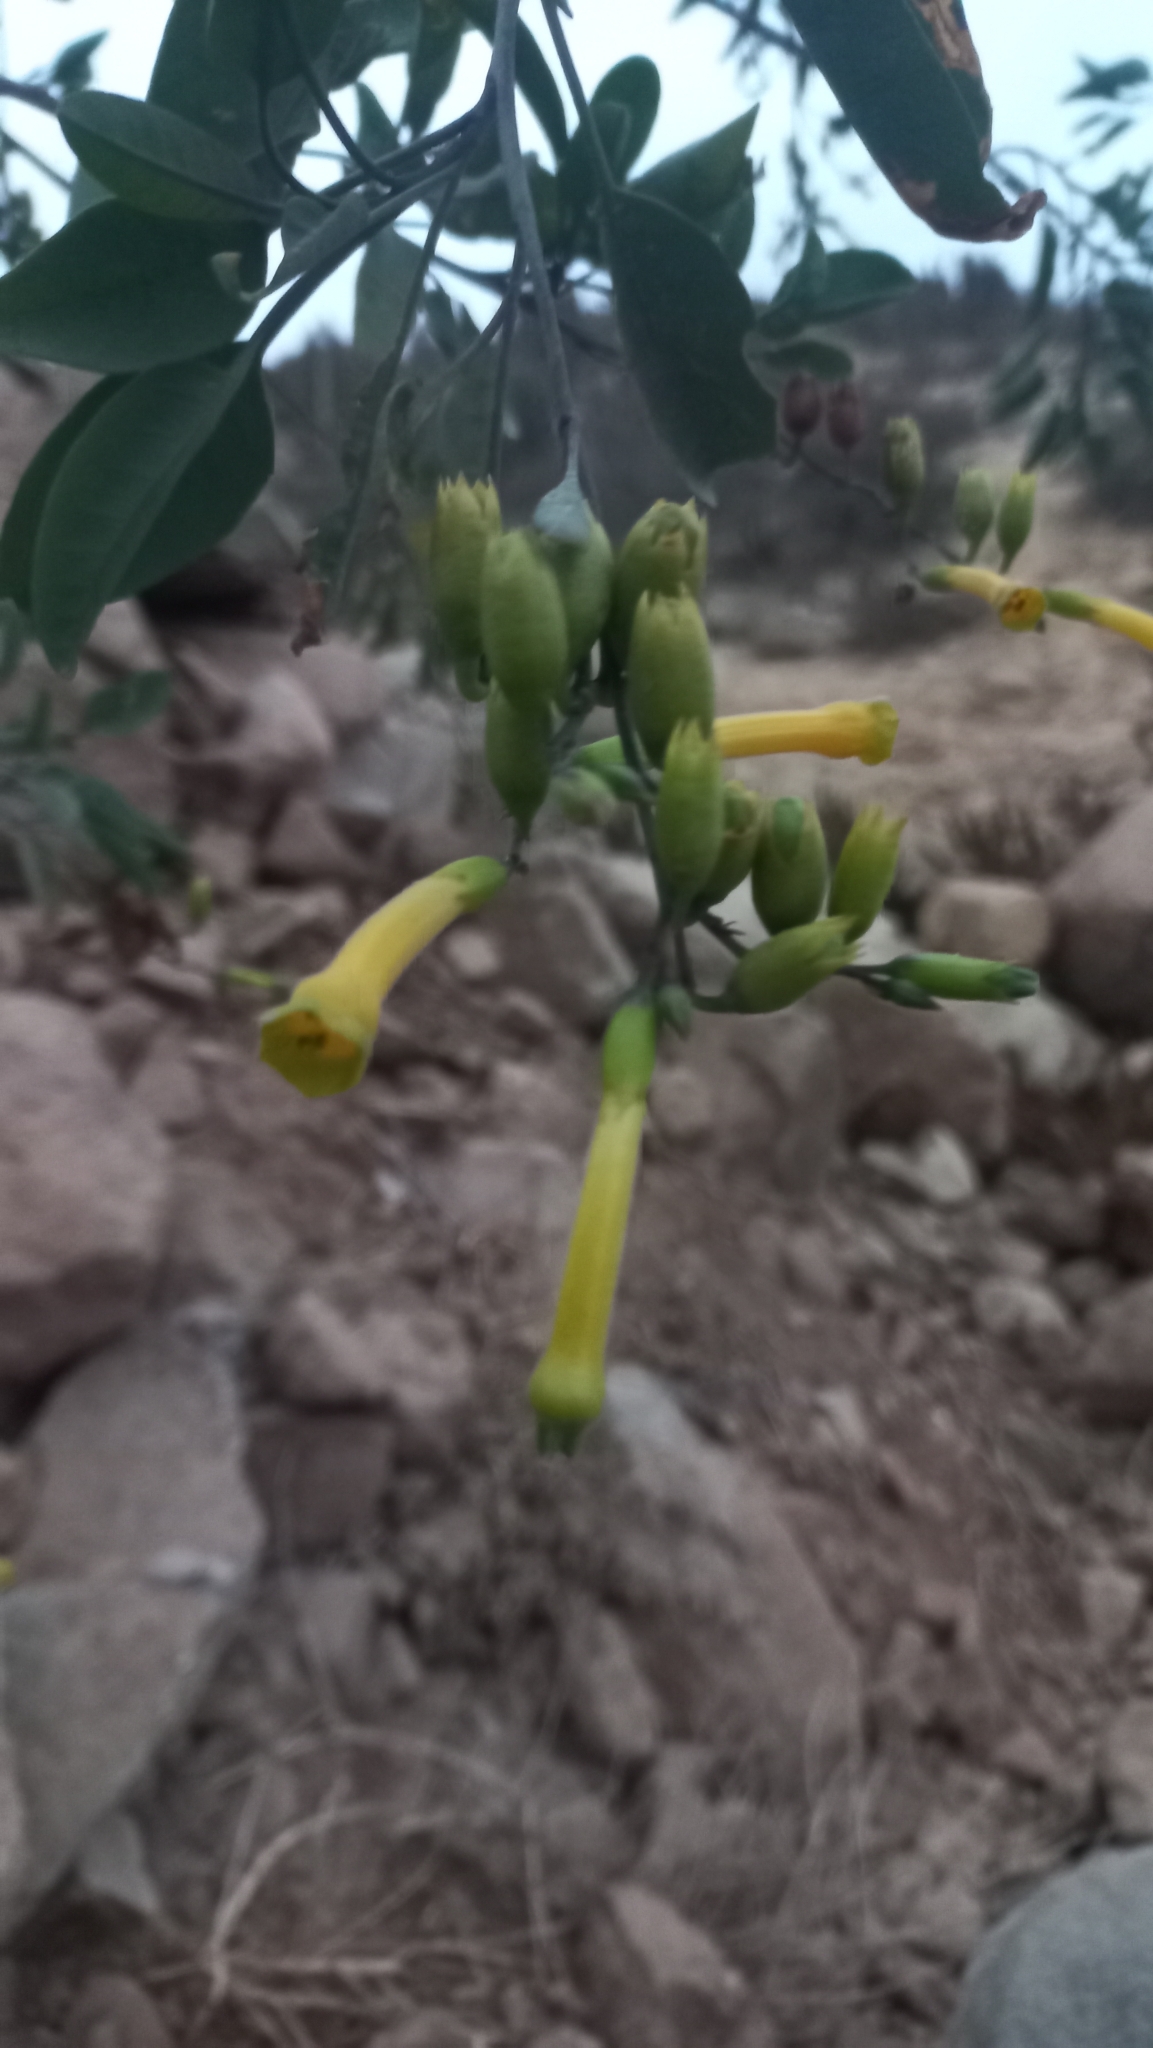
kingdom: Plantae
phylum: Tracheophyta
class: Magnoliopsida
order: Solanales
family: Solanaceae
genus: Nicotiana
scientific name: Nicotiana glauca
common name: Tree tobacco
